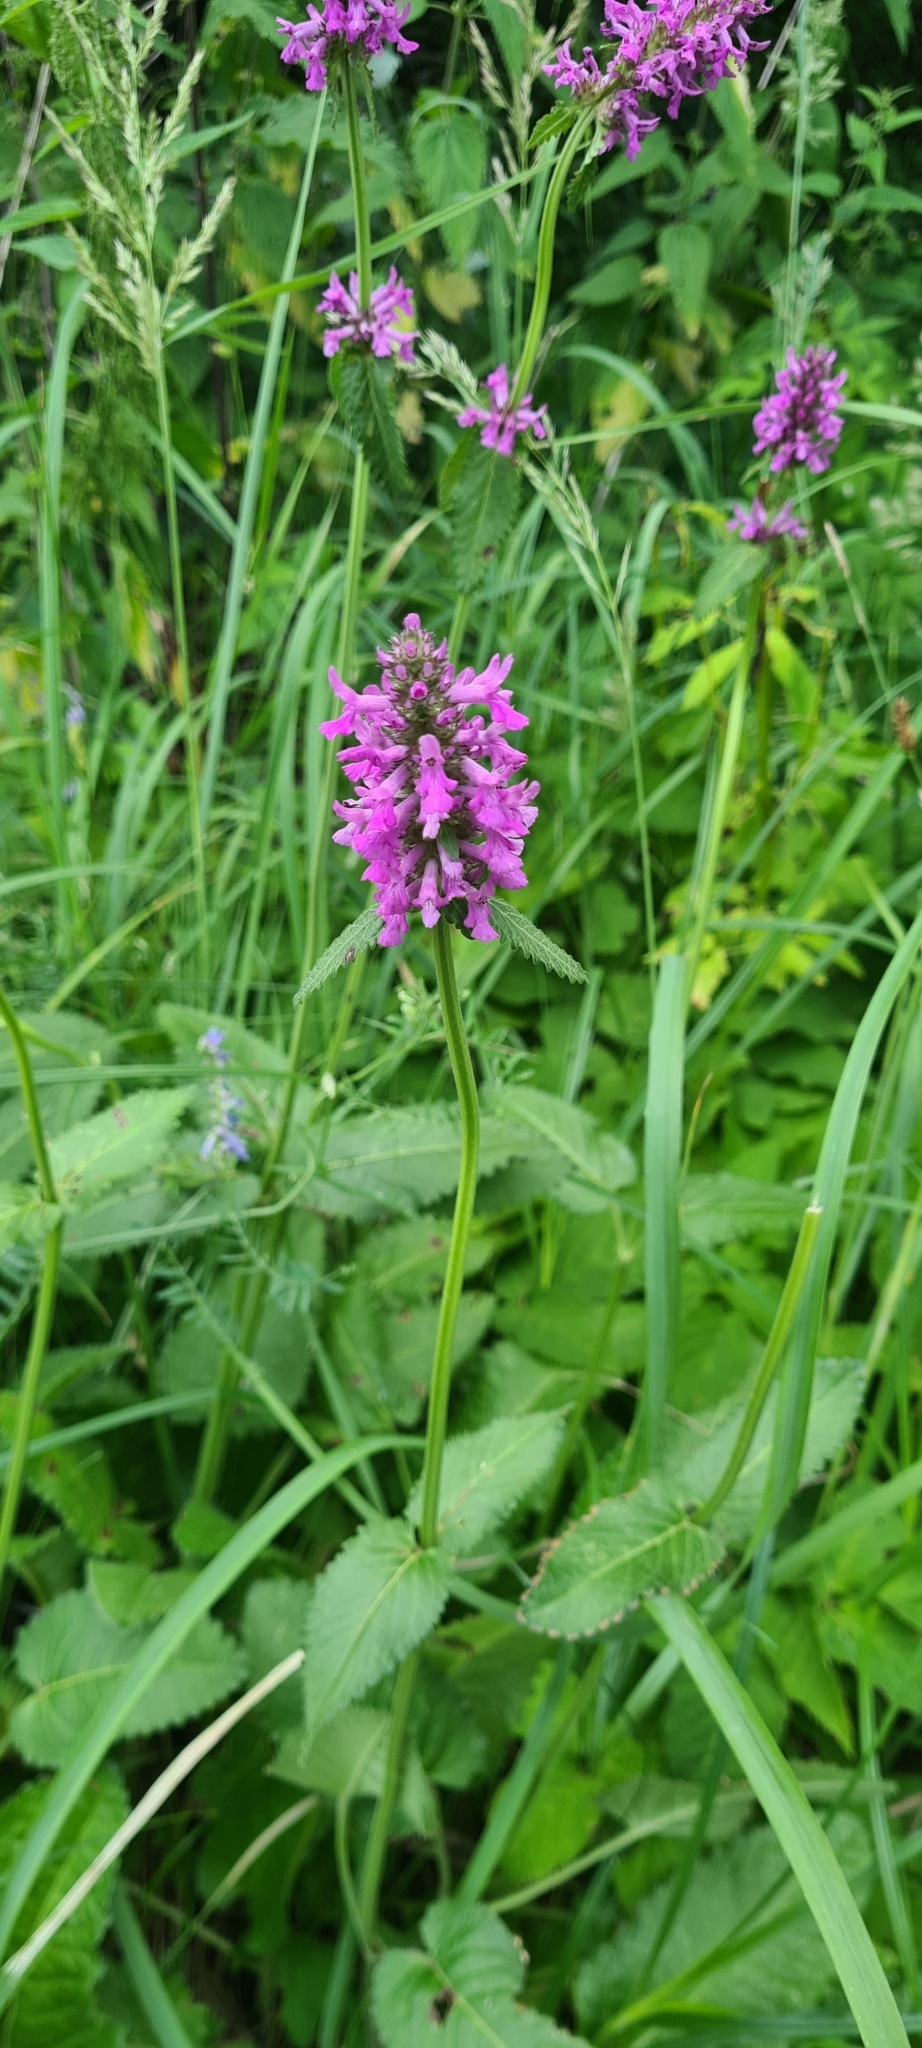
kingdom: Plantae
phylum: Tracheophyta
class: Magnoliopsida
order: Lamiales
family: Lamiaceae
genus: Betonica
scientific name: Betonica officinalis
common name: Bishop's-wort
